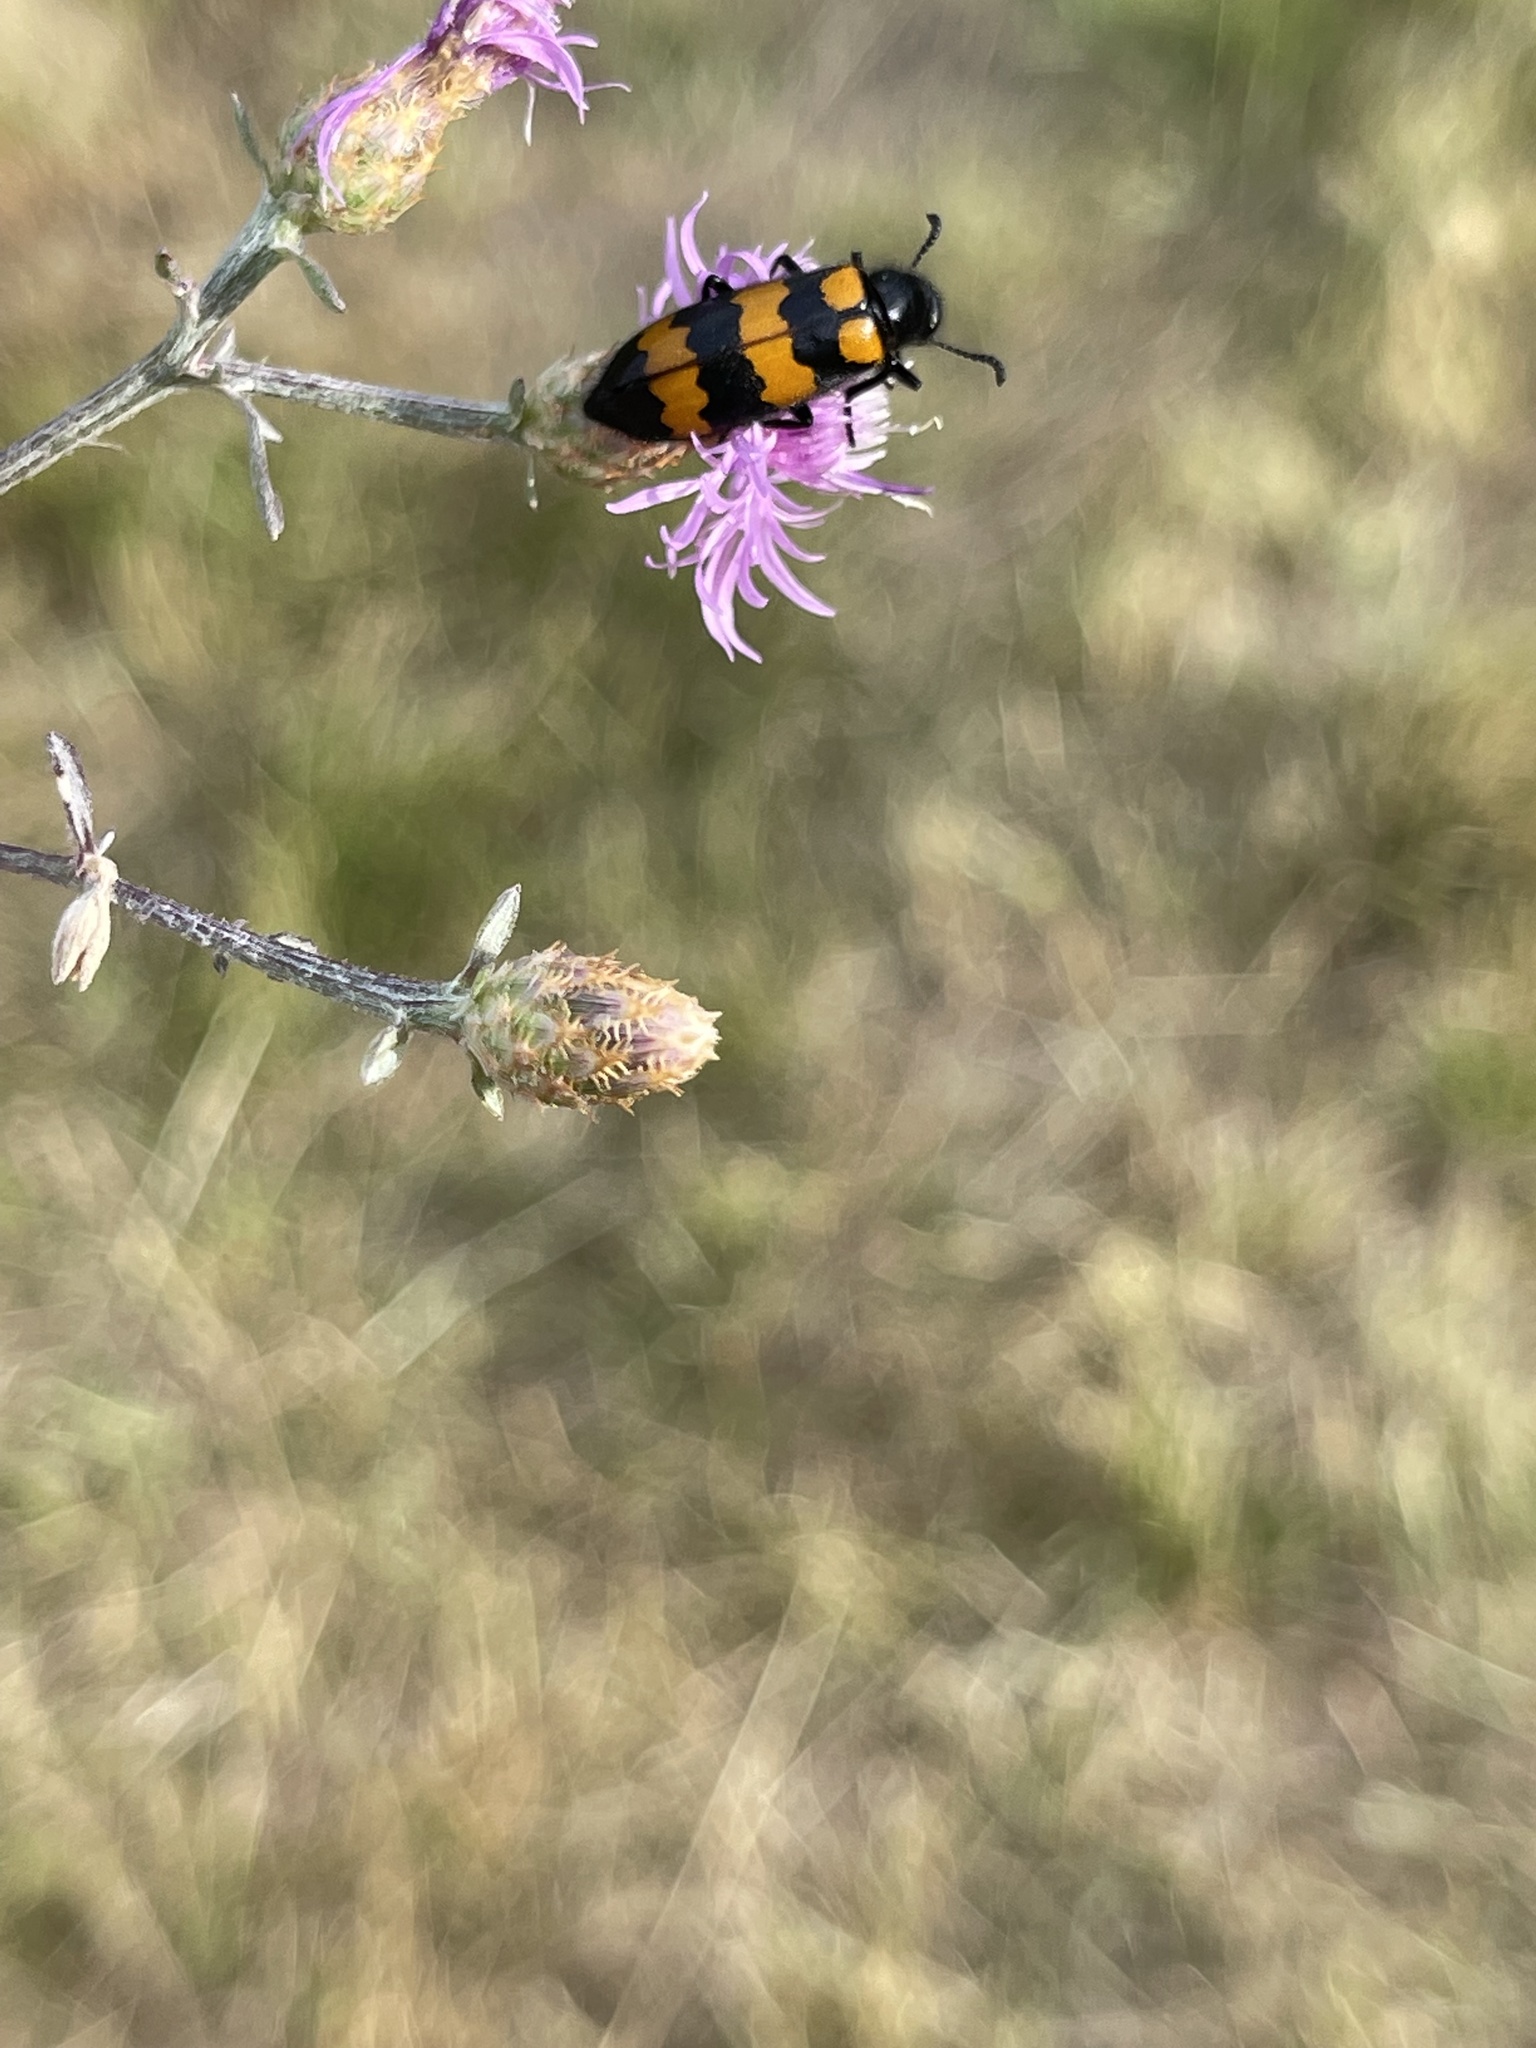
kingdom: Animalia
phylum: Arthropoda
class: Insecta
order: Coleoptera
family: Meloidae
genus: Mylabris
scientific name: Mylabris variabilis
